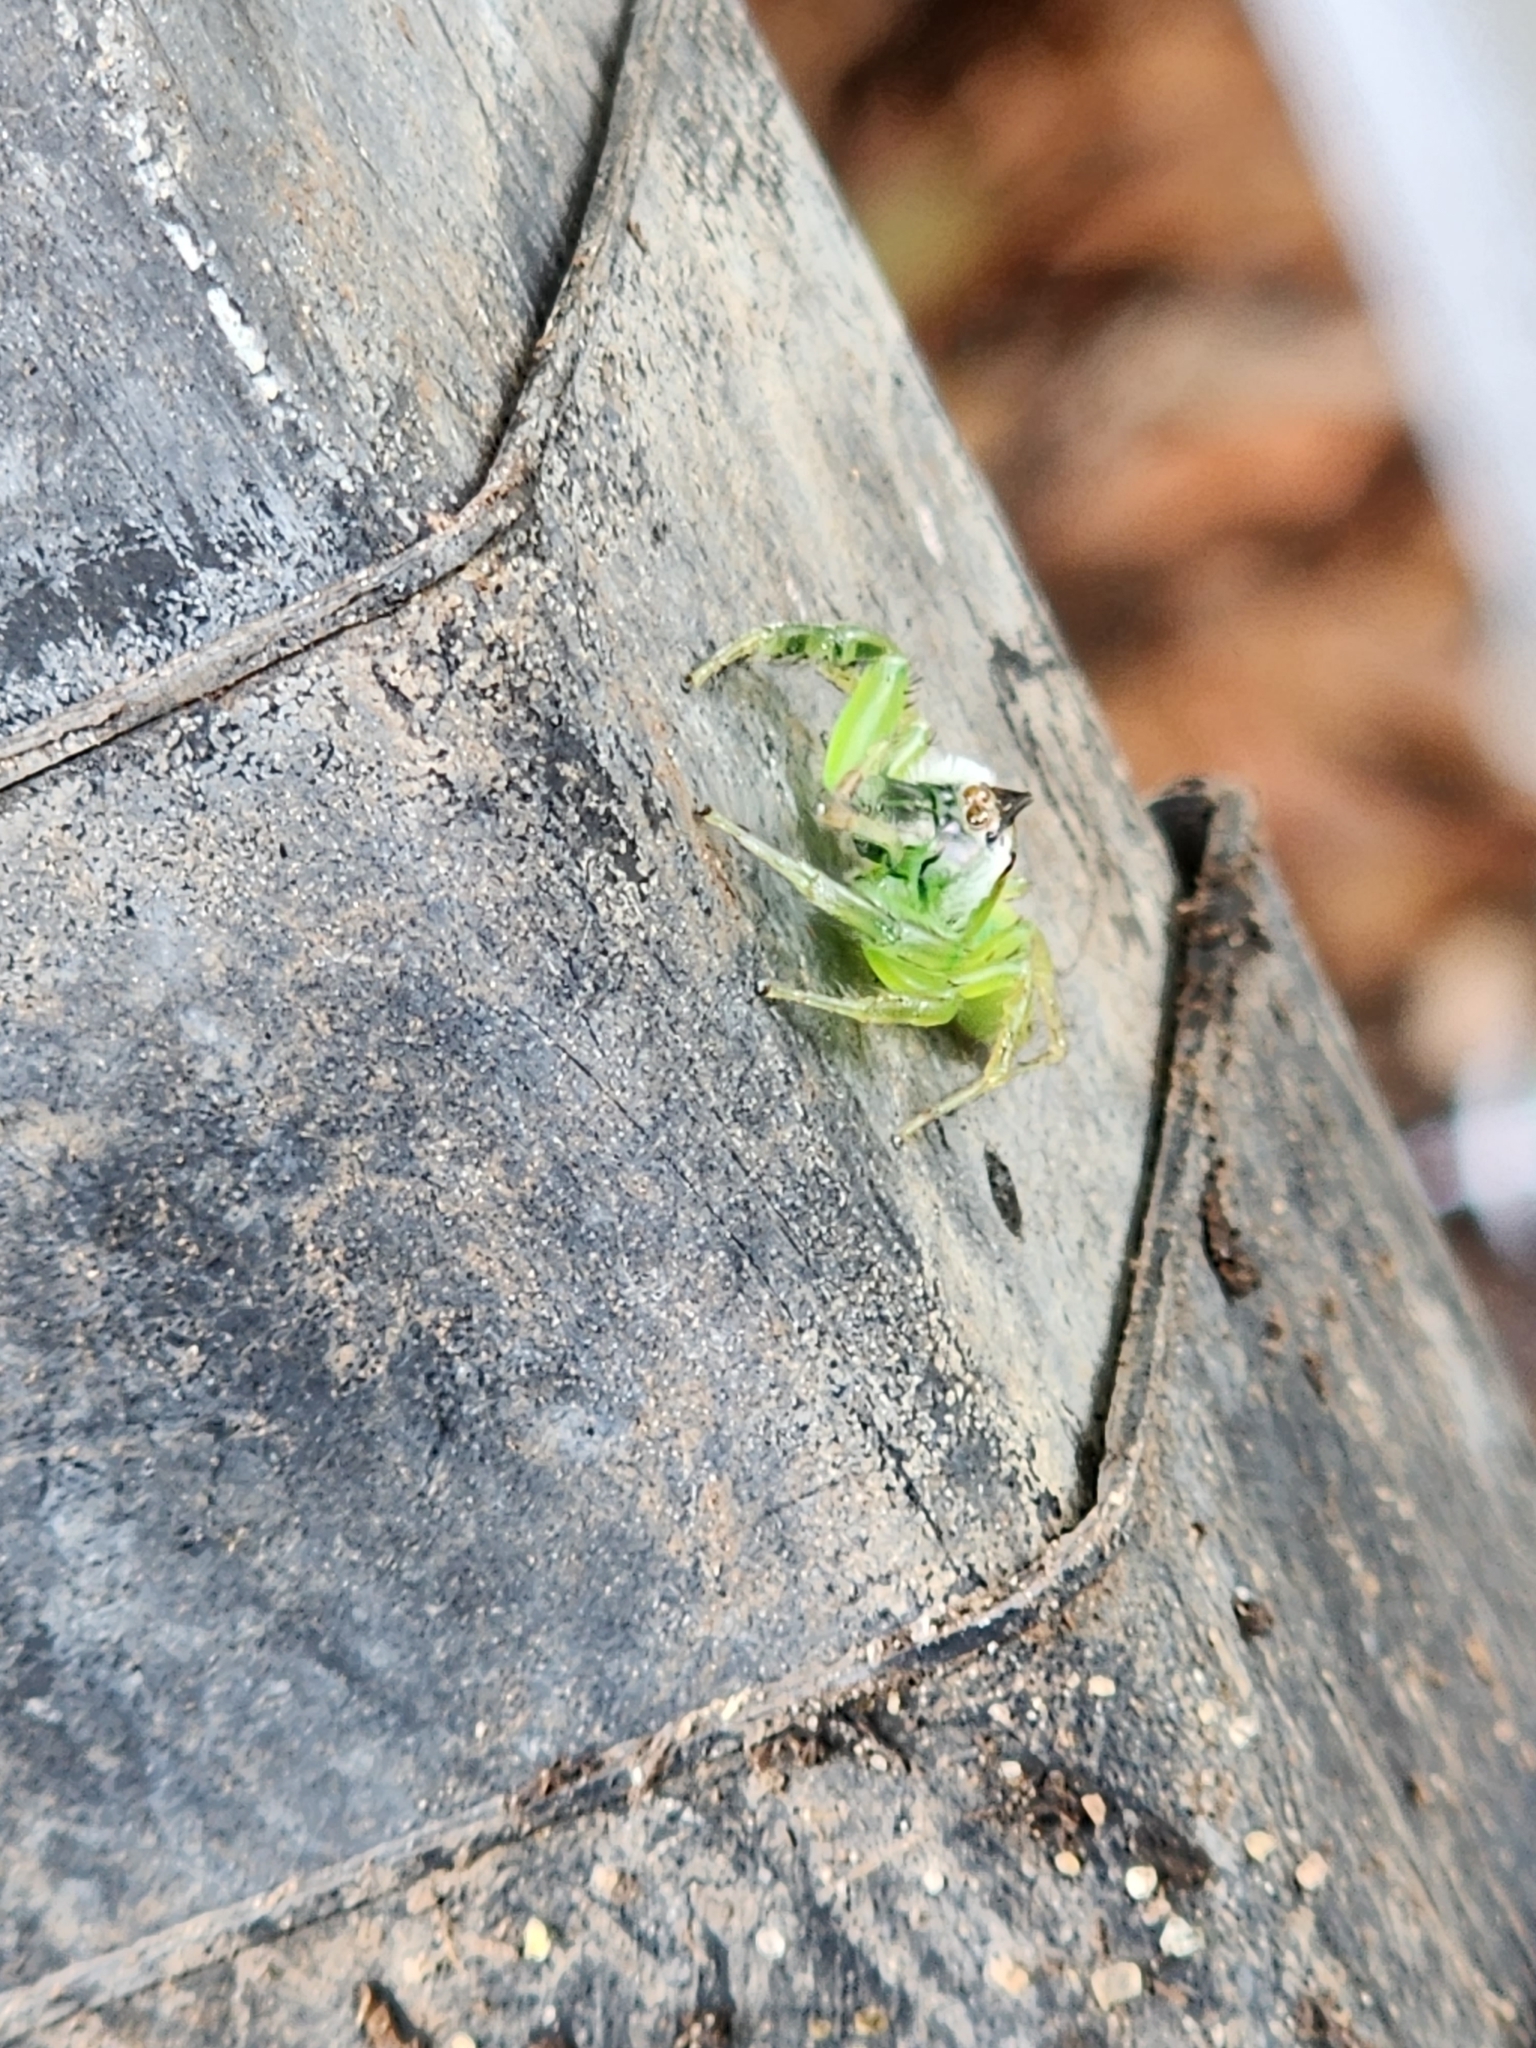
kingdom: Animalia
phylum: Arthropoda
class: Arachnida
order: Araneae
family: Salticidae
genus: Mopsus
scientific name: Mopsus mormon
